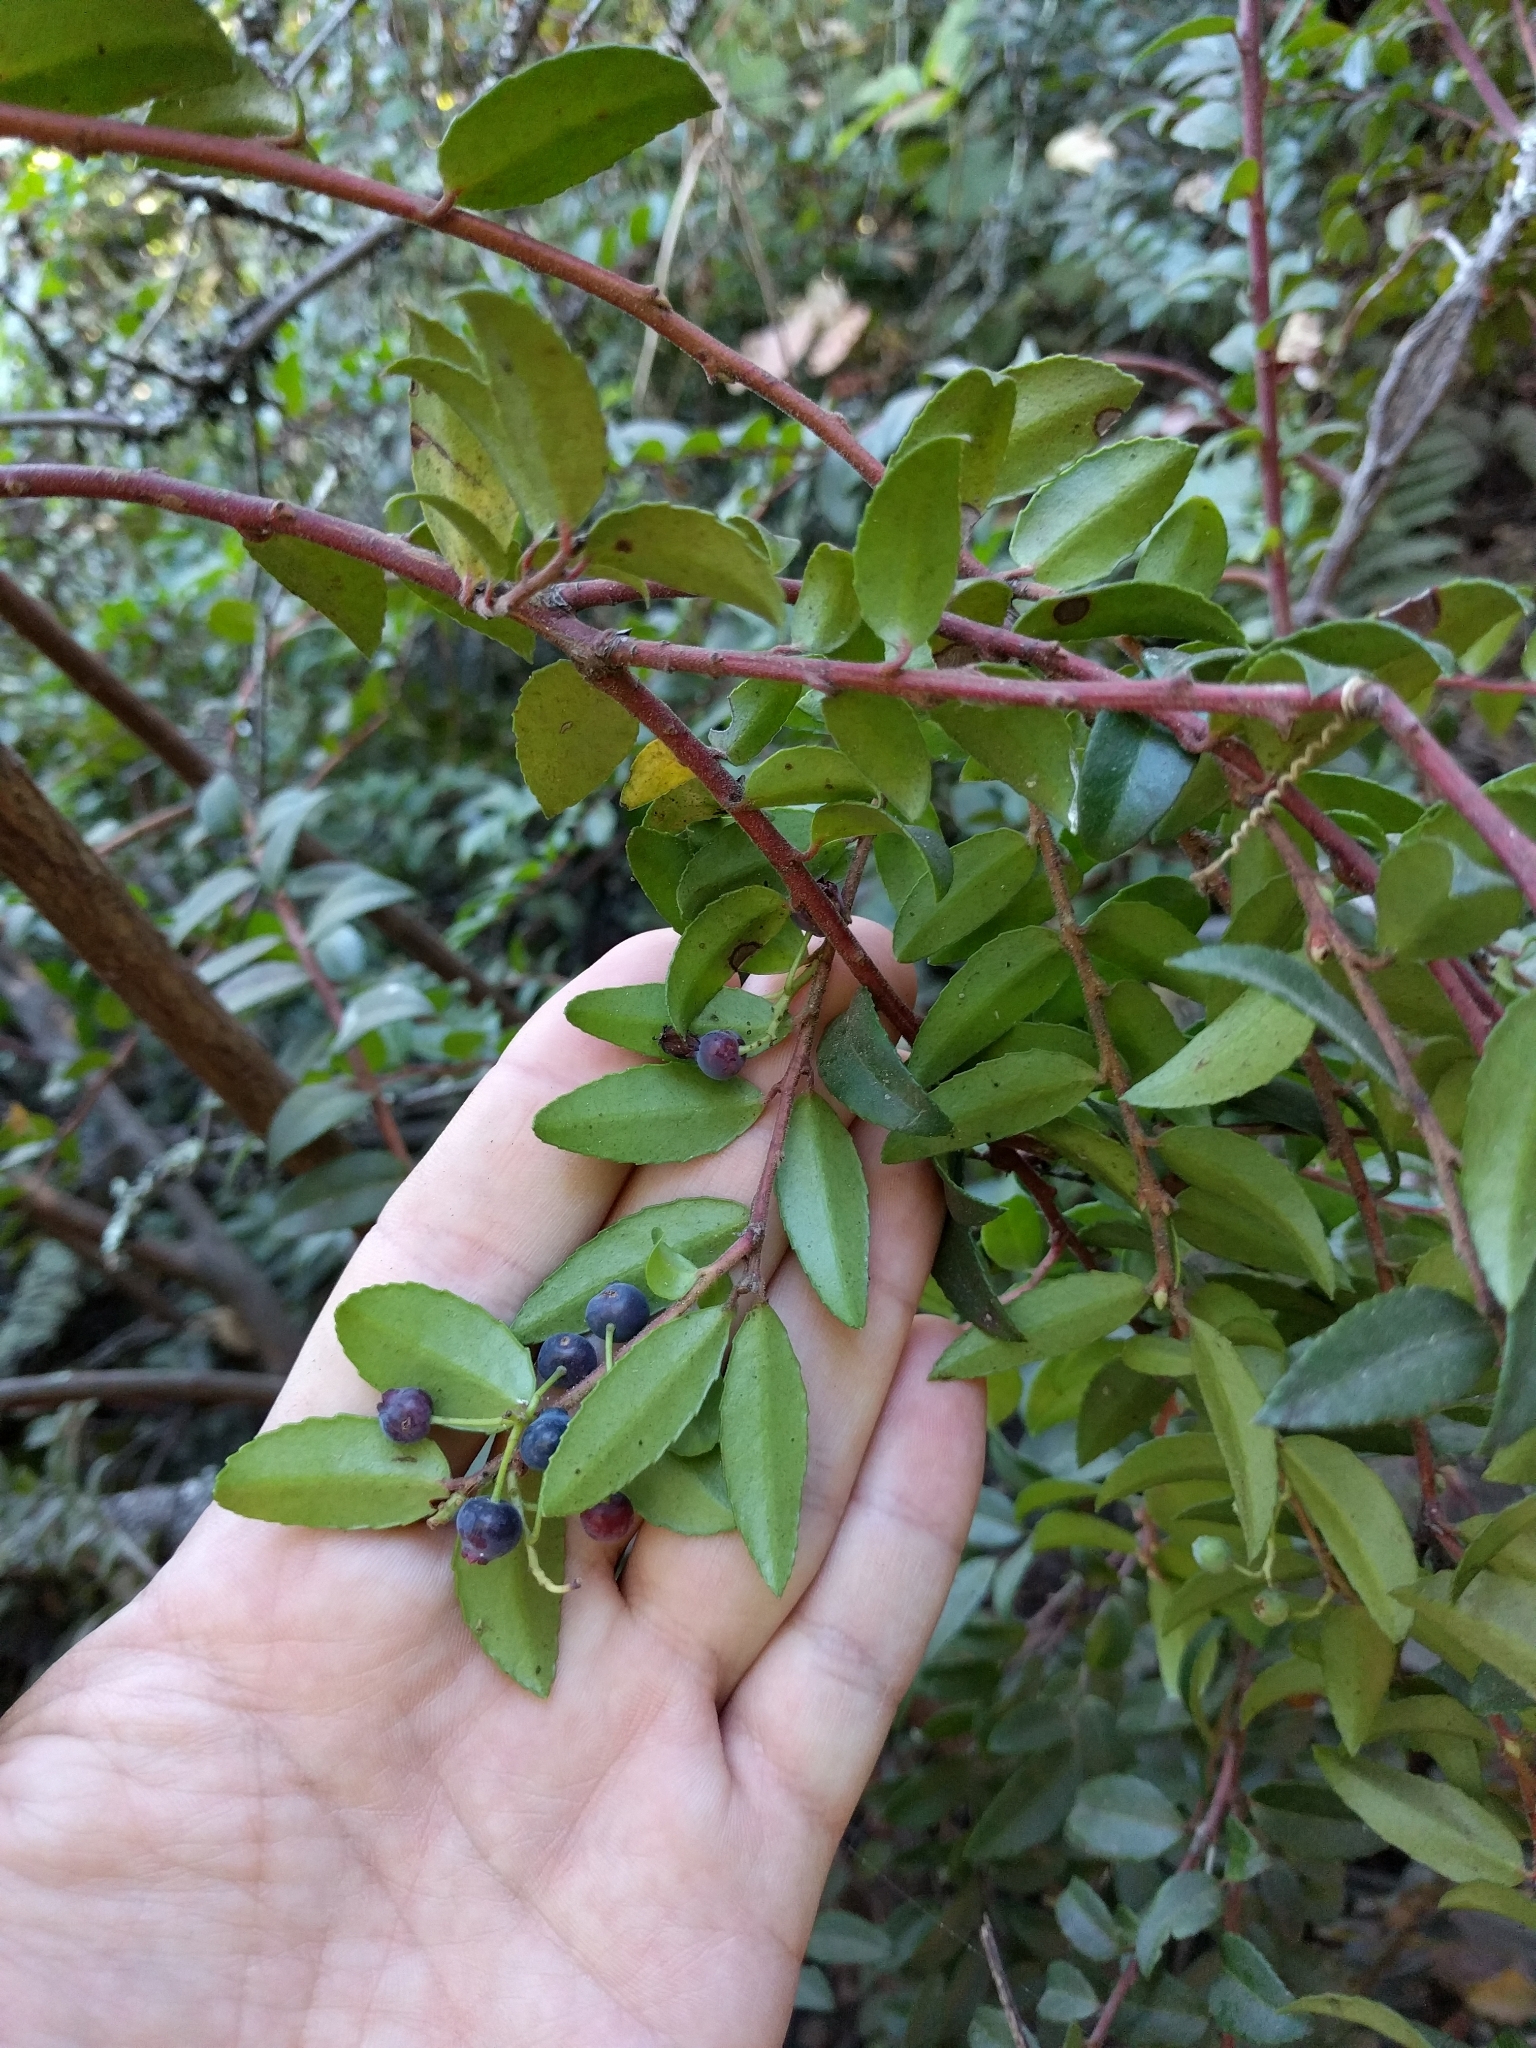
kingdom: Plantae
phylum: Tracheophyta
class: Magnoliopsida
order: Ericales
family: Ericaceae
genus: Vaccinium
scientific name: Vaccinium ovatum
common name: California-huckleberry
